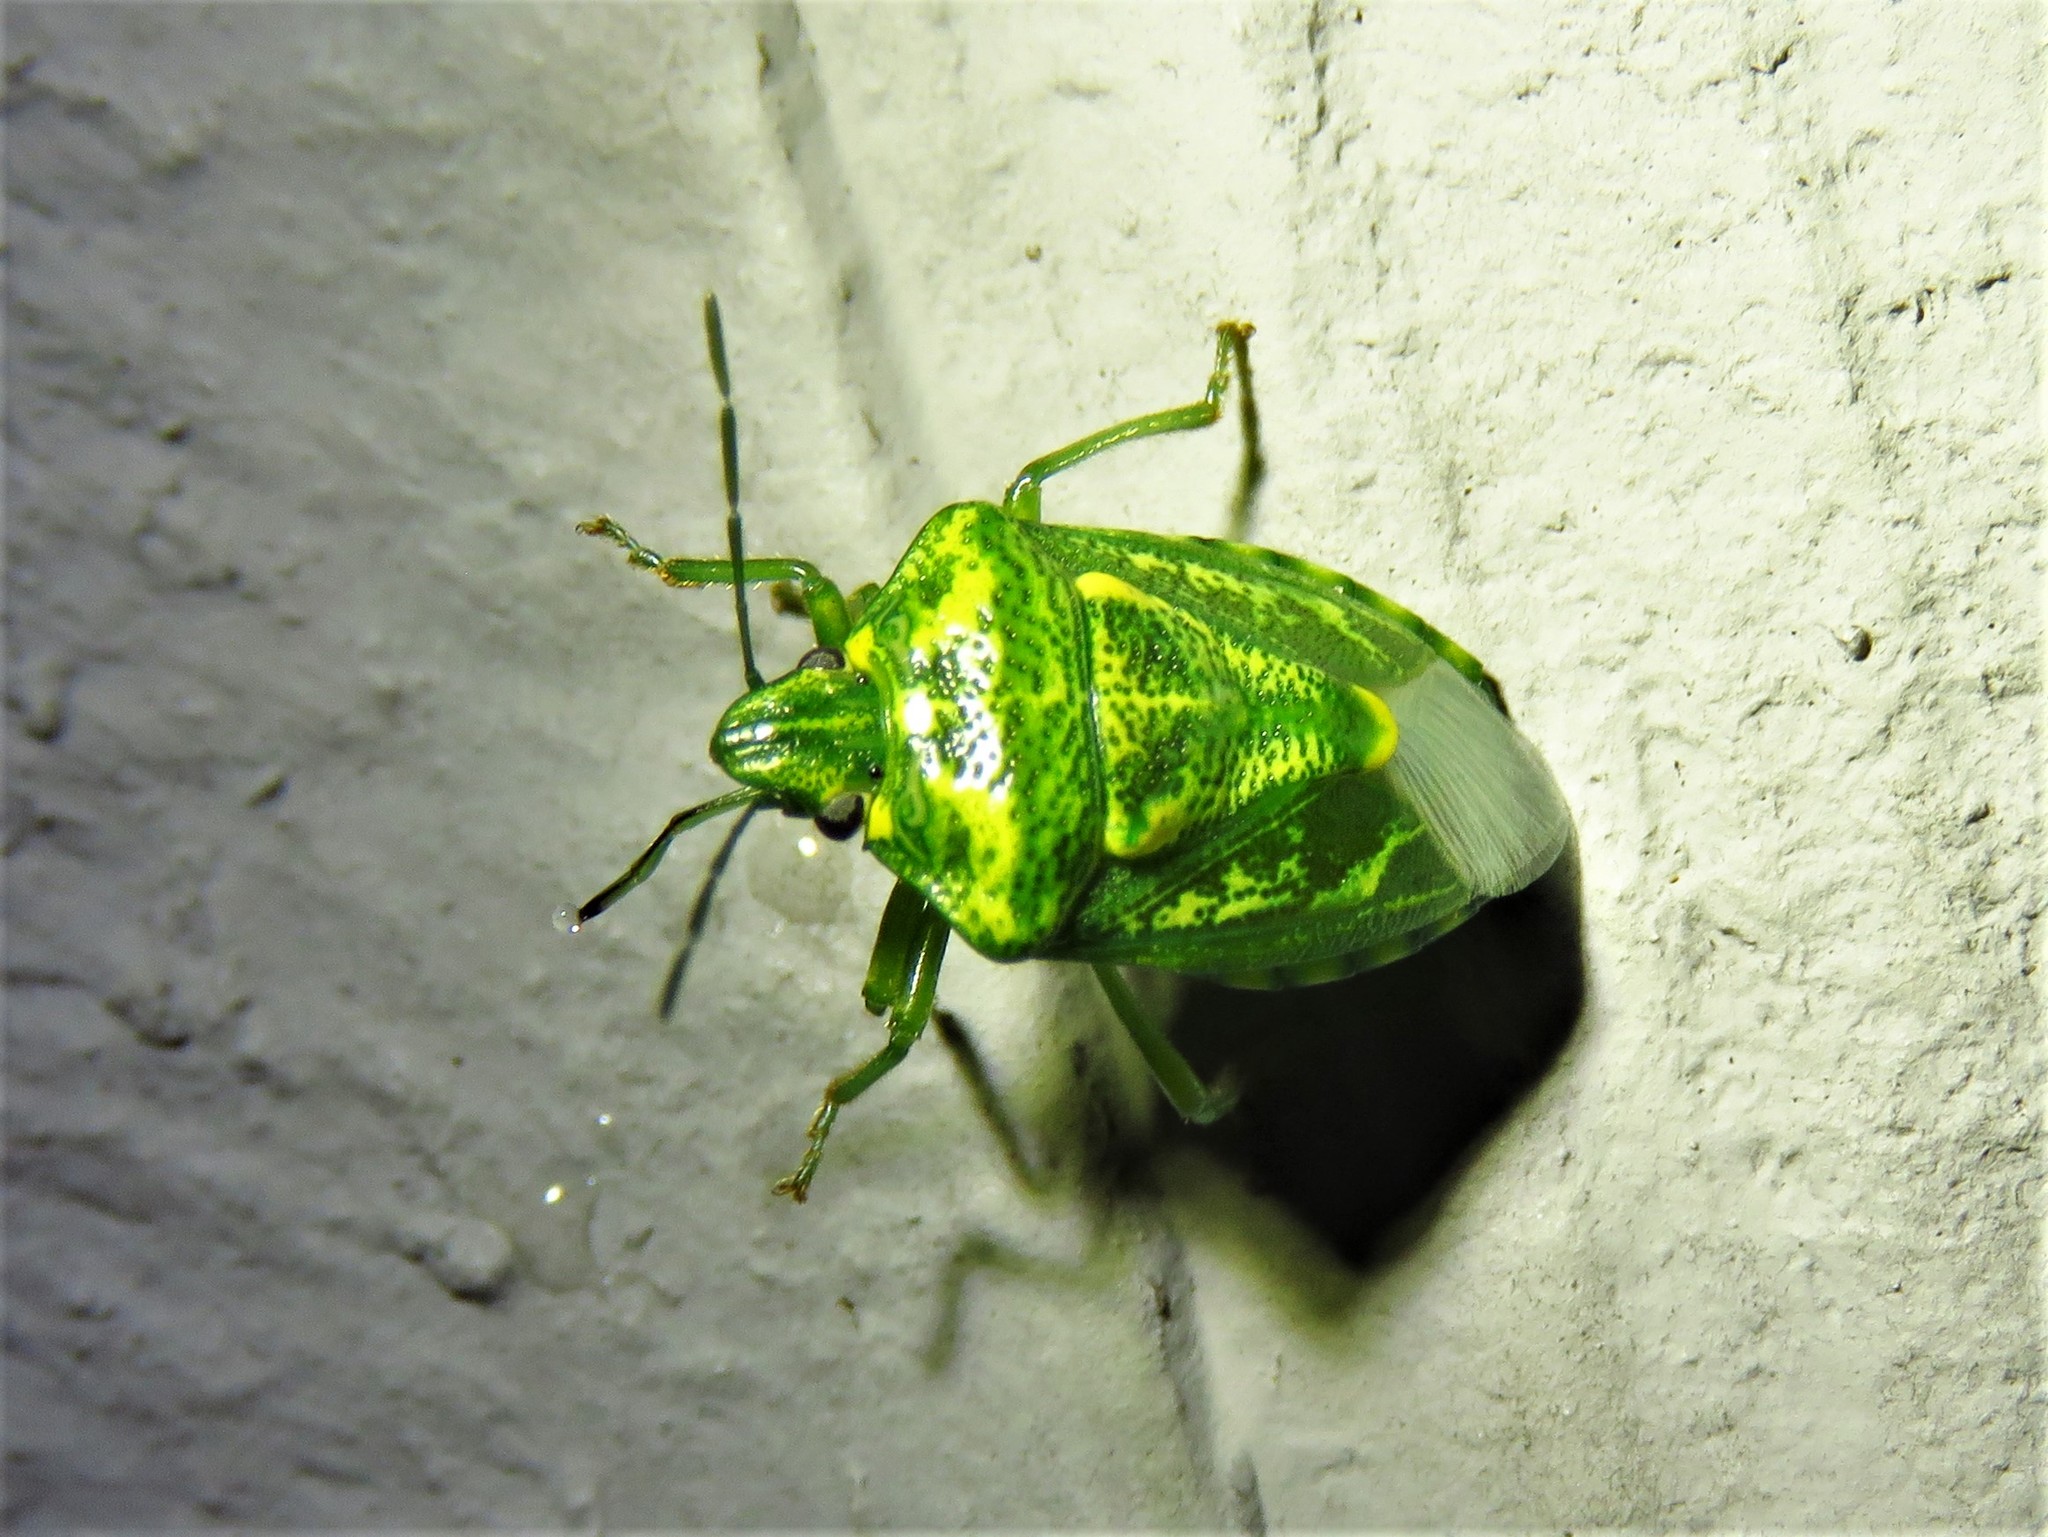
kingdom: Animalia
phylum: Arthropoda
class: Insecta
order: Hemiptera
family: Pentatomidae
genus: Banasa
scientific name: Banasa euchlora
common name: Cedar berry bug
